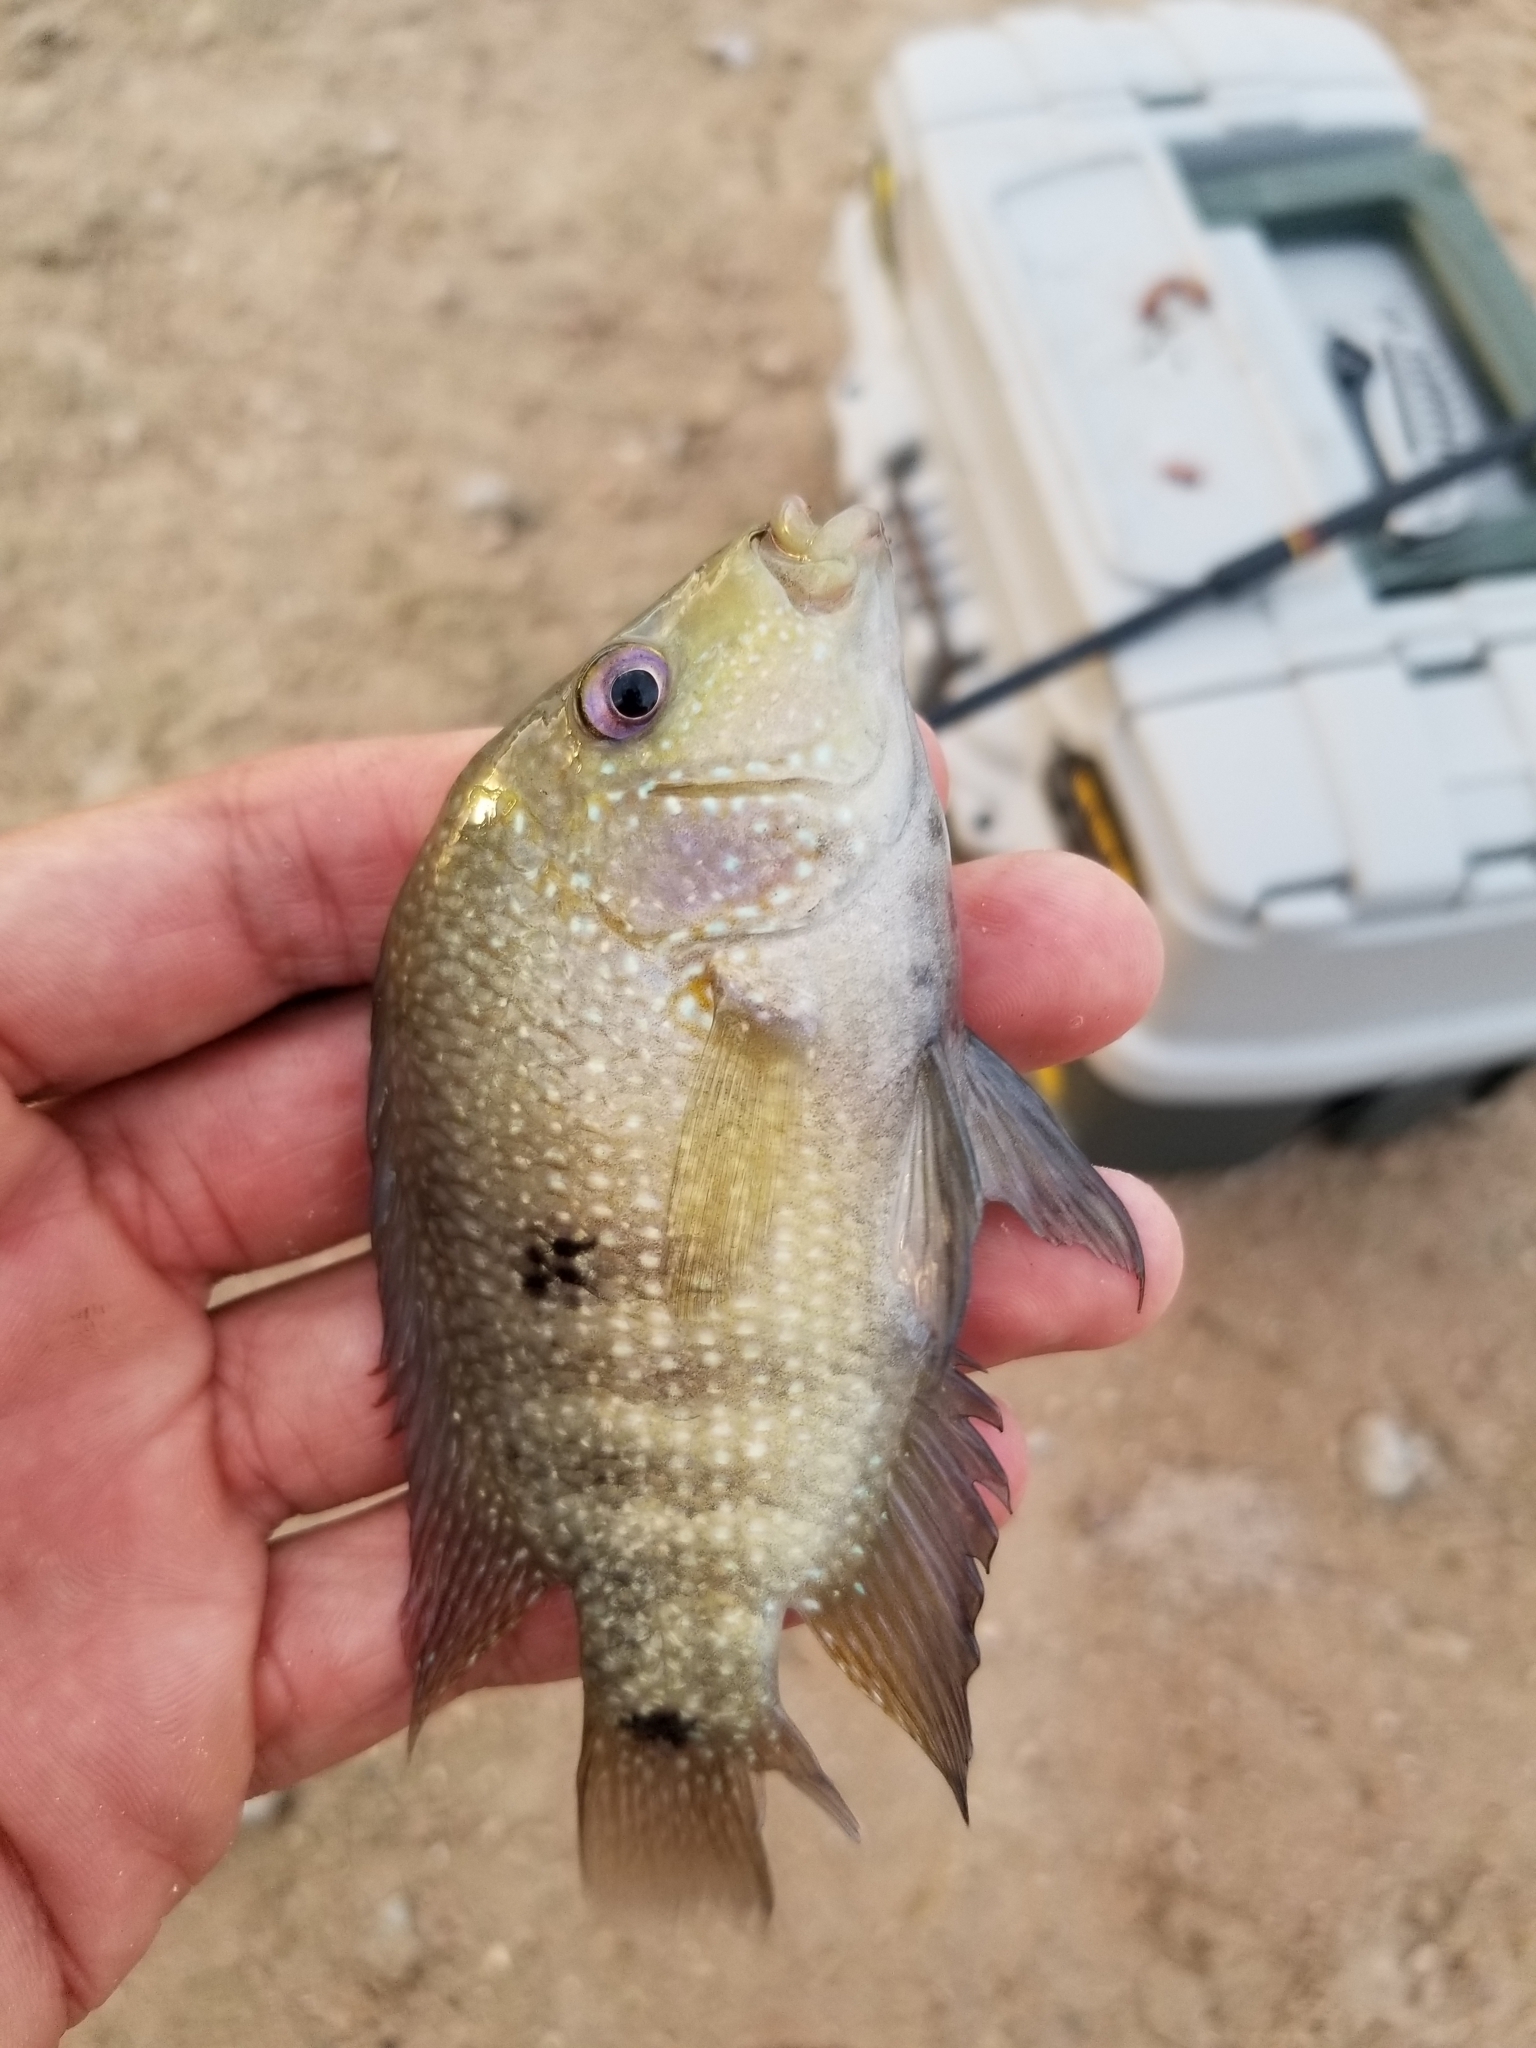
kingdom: Animalia
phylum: Chordata
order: Perciformes
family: Cichlidae
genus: Herichthys
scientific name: Herichthys cyanoguttatus
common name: Rio grande cichlid
